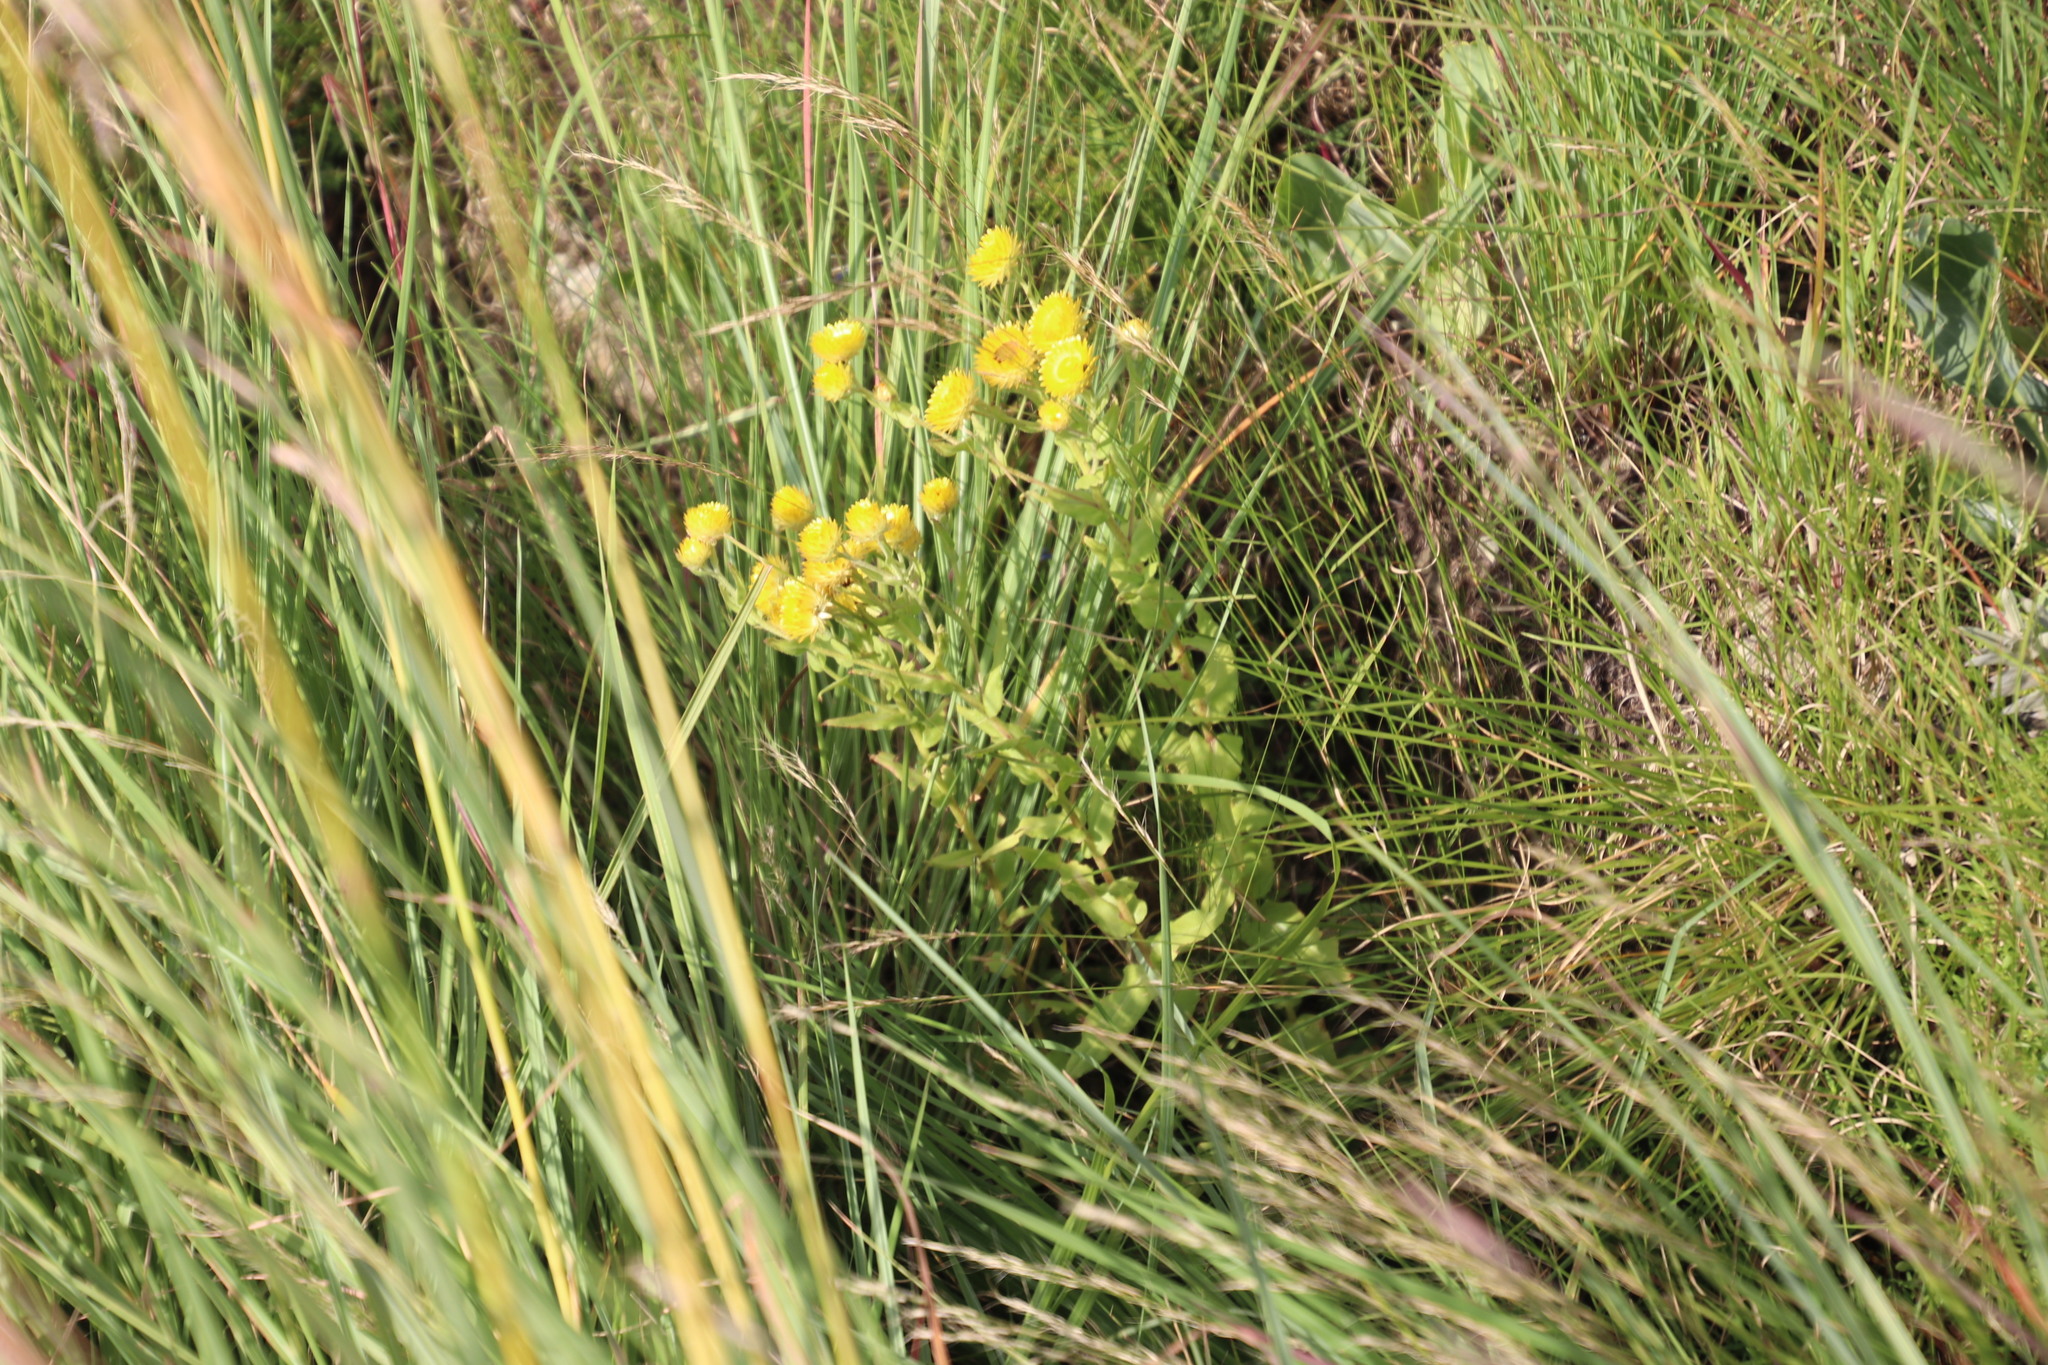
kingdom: Plantae
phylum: Tracheophyta
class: Magnoliopsida
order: Asterales
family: Asteraceae
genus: Helichrysum
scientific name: Helichrysum cooperi
